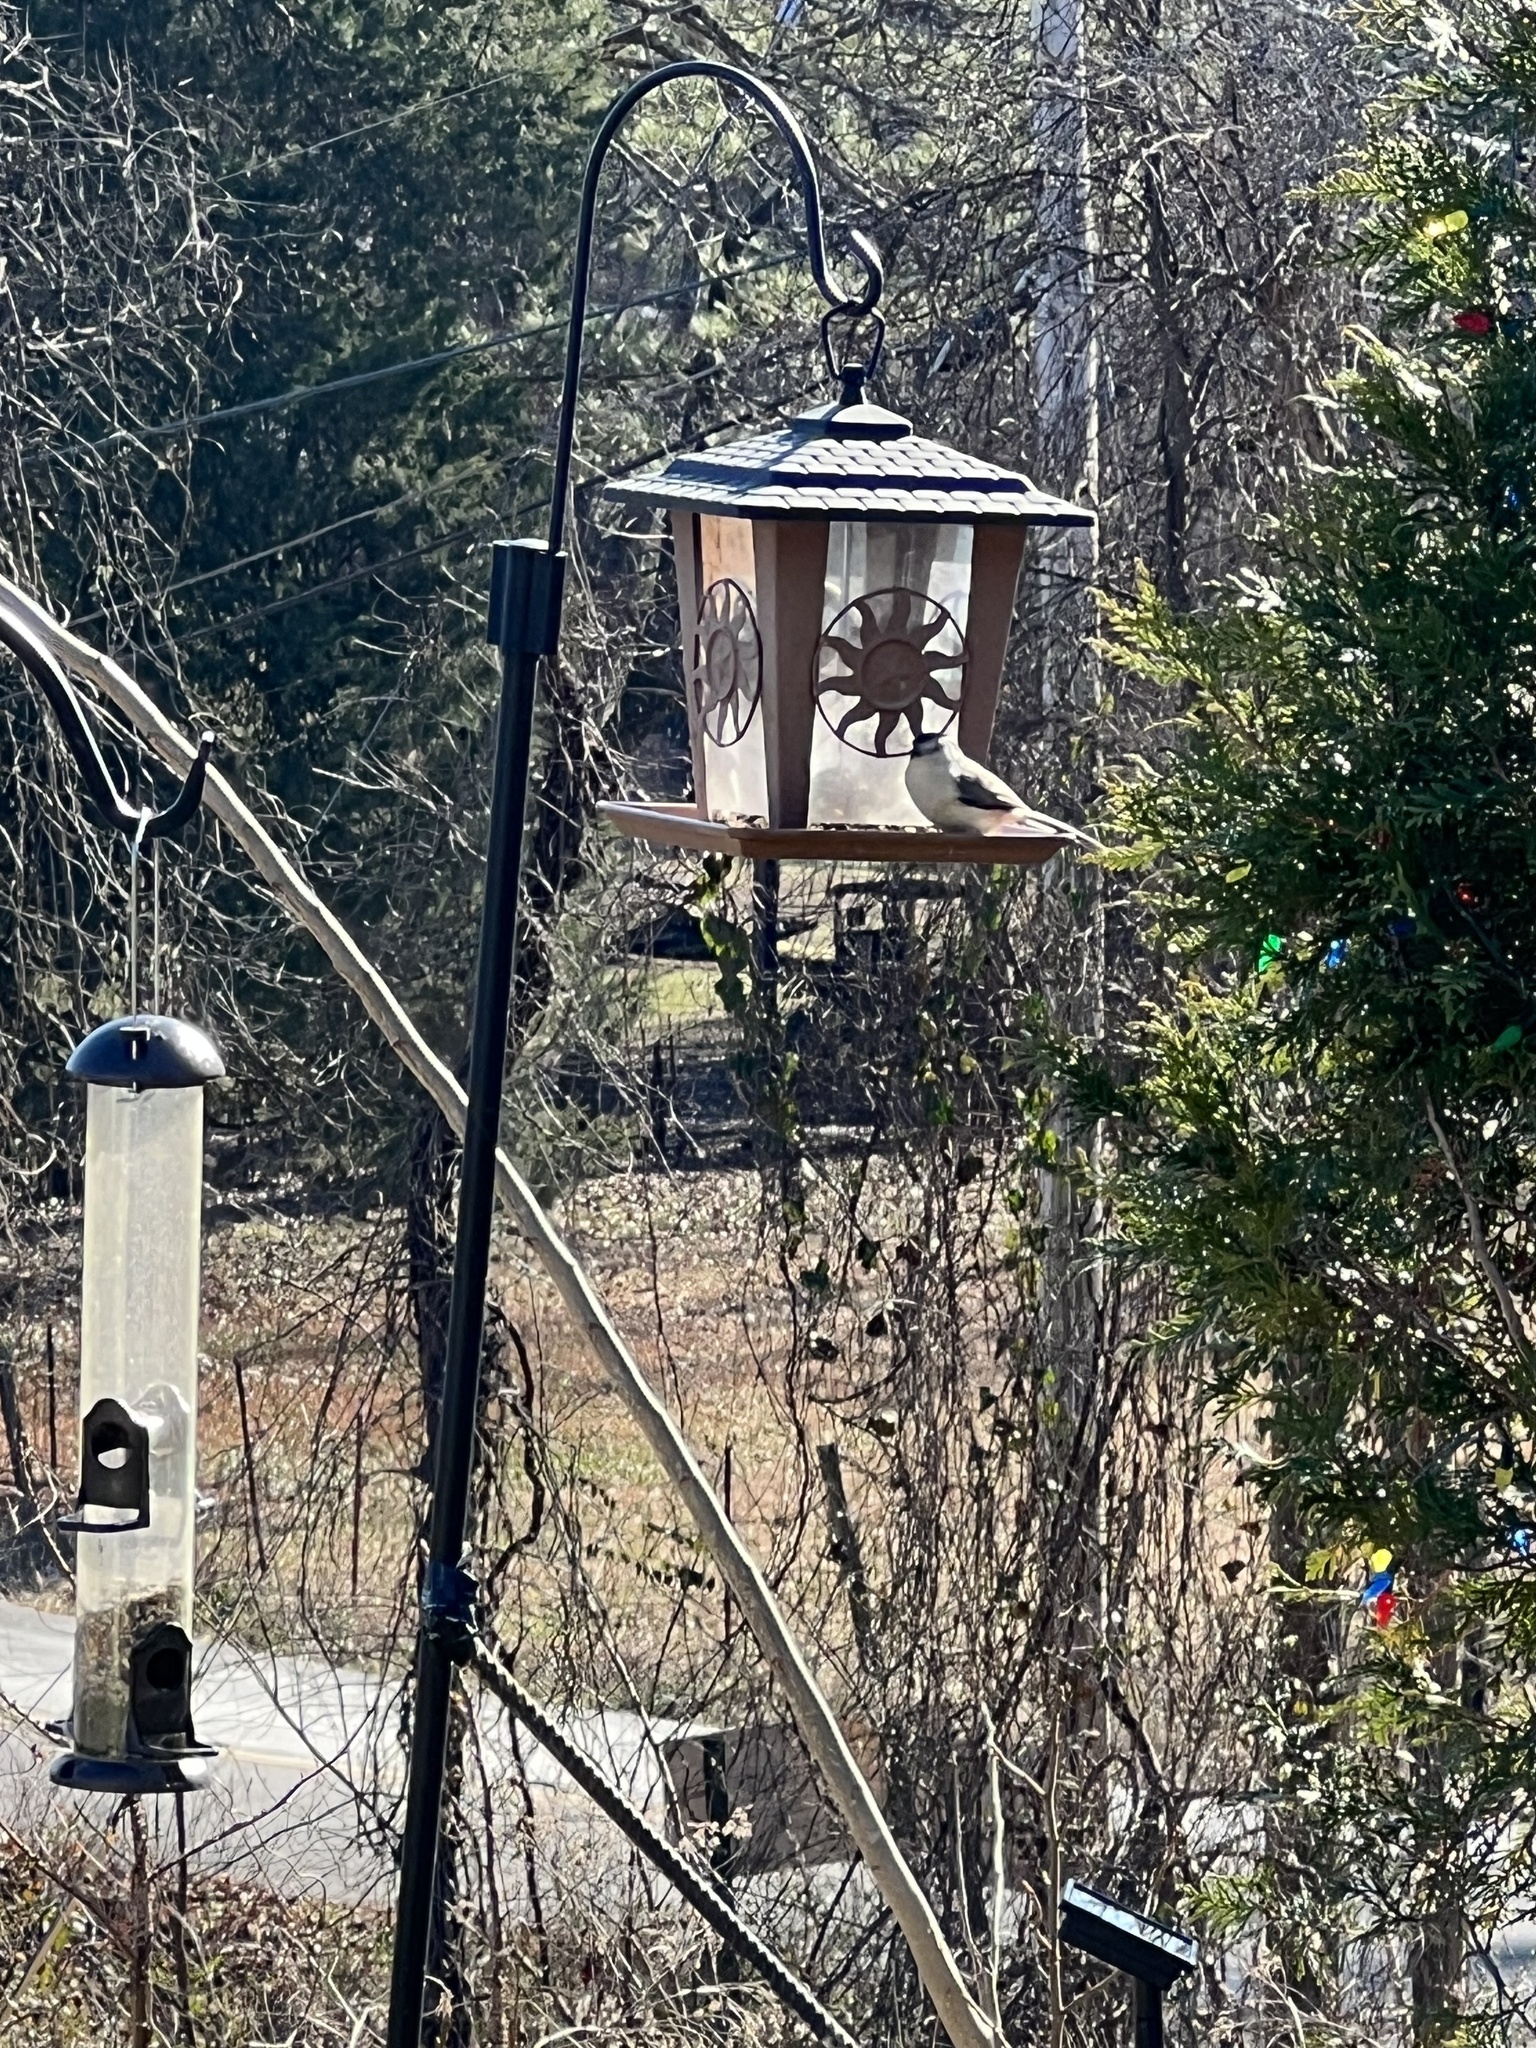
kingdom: Animalia
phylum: Chordata
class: Aves
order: Passeriformes
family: Paridae
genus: Baeolophus
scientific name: Baeolophus bicolor
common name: Tufted titmouse
